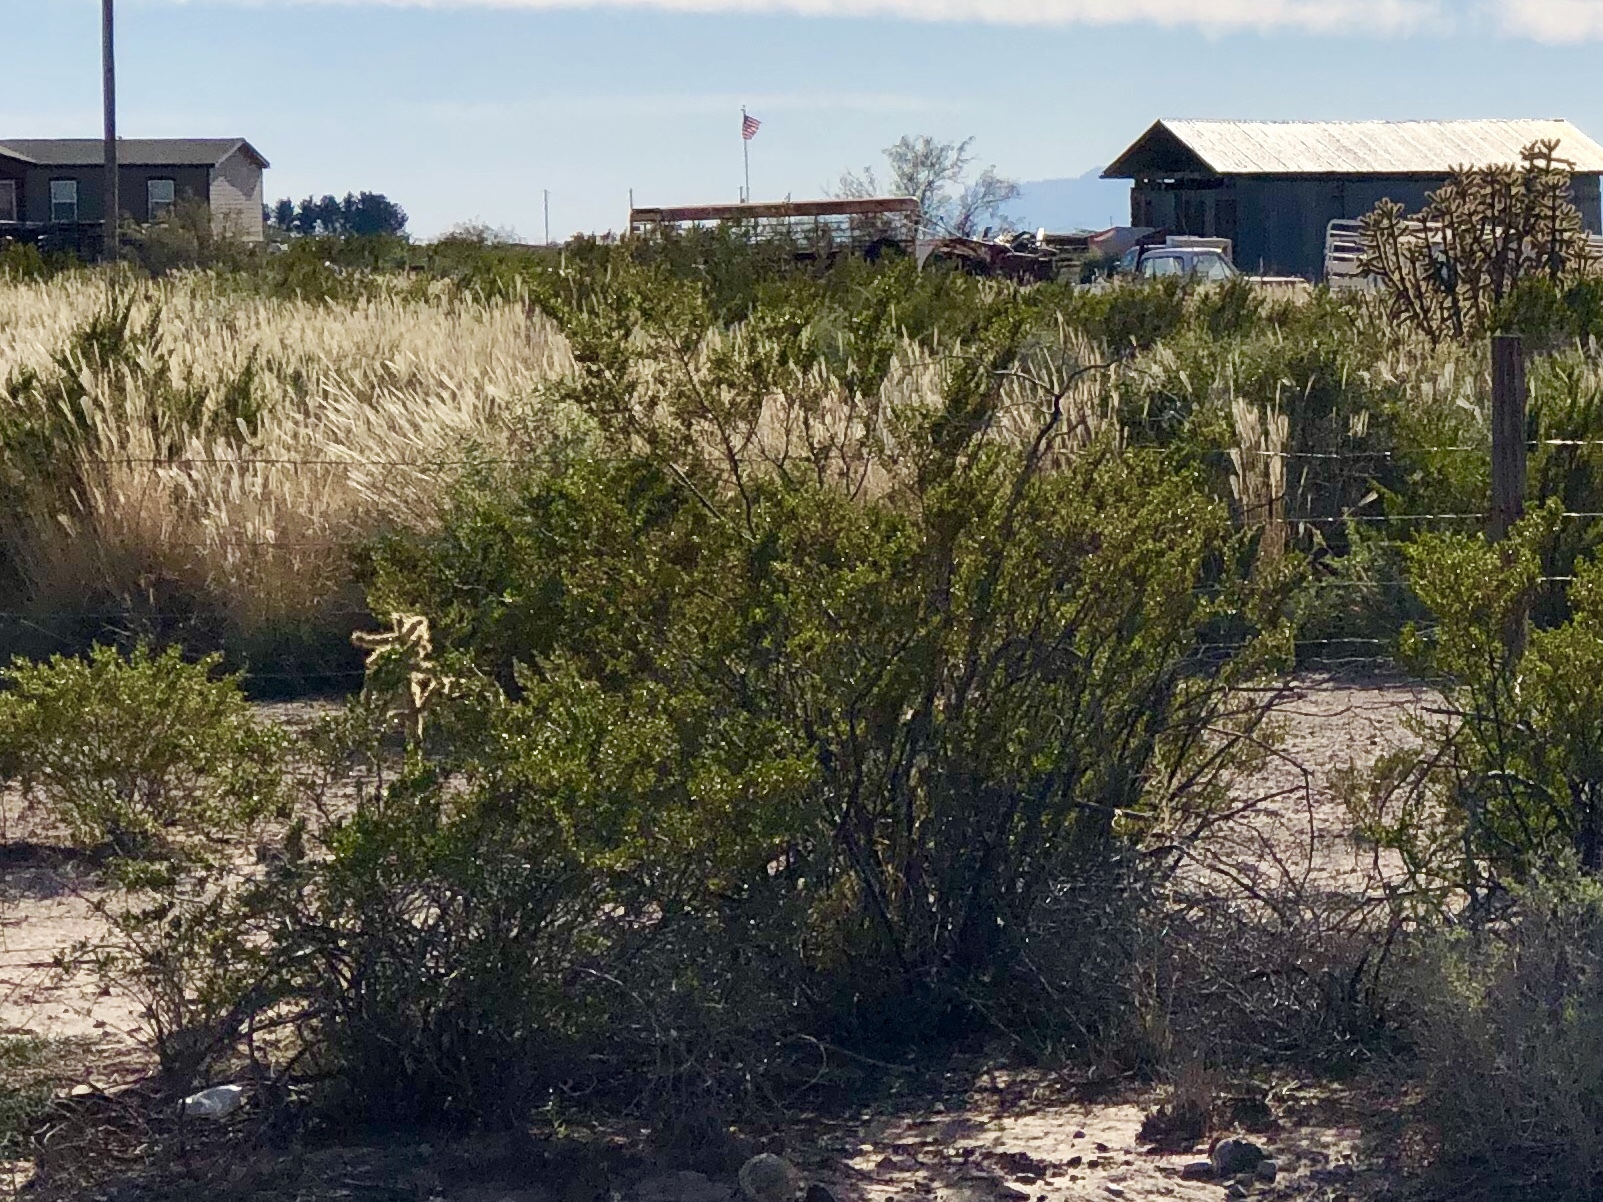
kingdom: Plantae
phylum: Tracheophyta
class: Magnoliopsida
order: Zygophyllales
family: Zygophyllaceae
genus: Larrea
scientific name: Larrea tridentata
